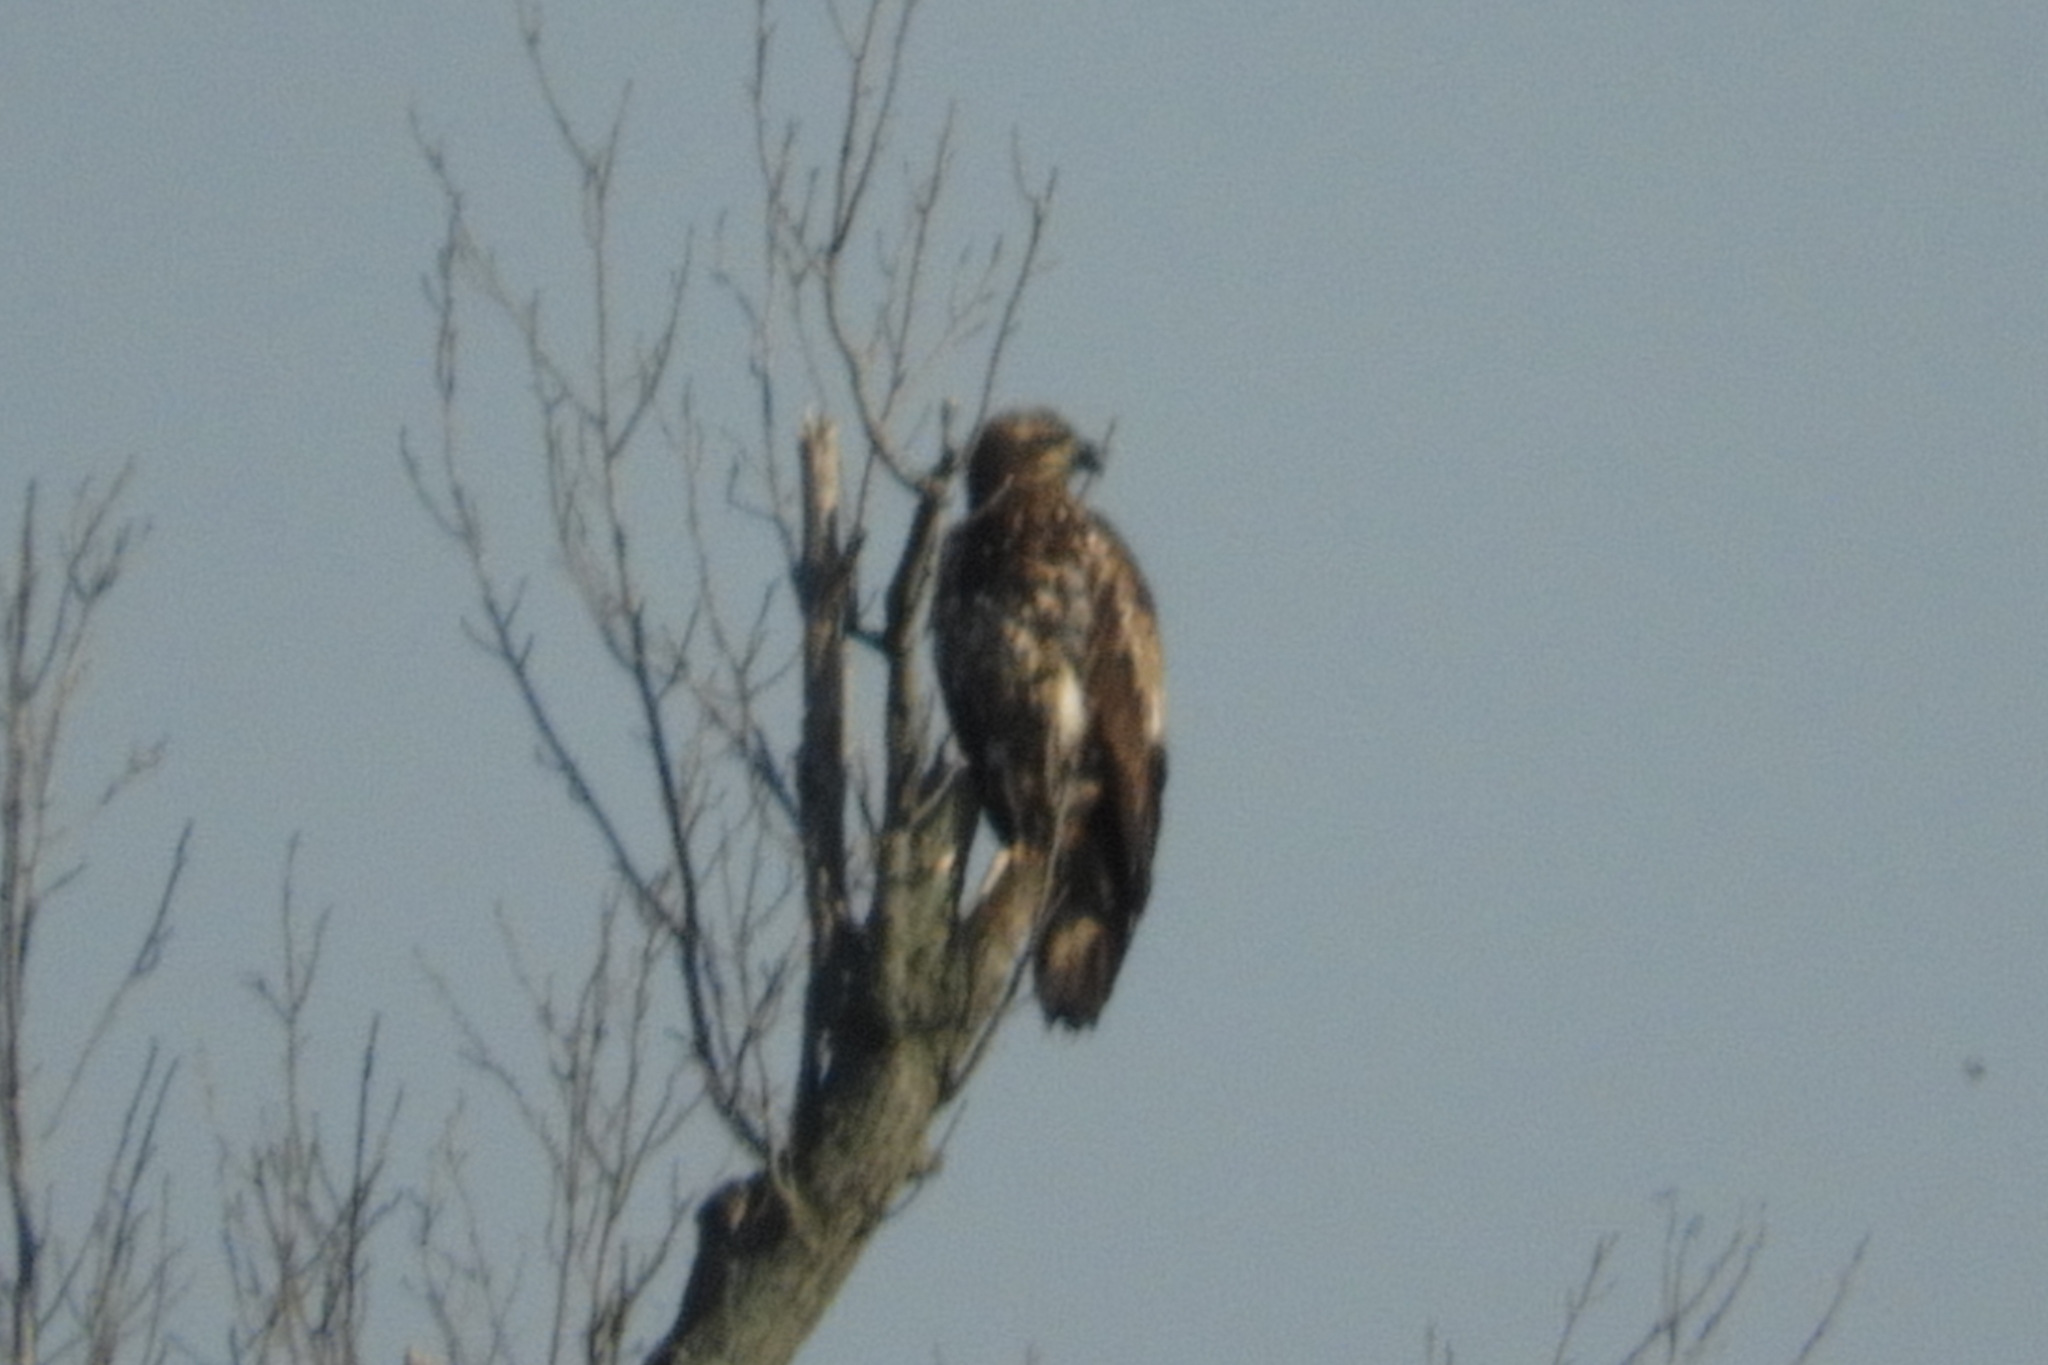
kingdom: Animalia
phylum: Chordata
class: Aves
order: Accipitriformes
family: Accipitridae
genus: Haliaeetus
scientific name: Haliaeetus leucocephalus
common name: Bald eagle
